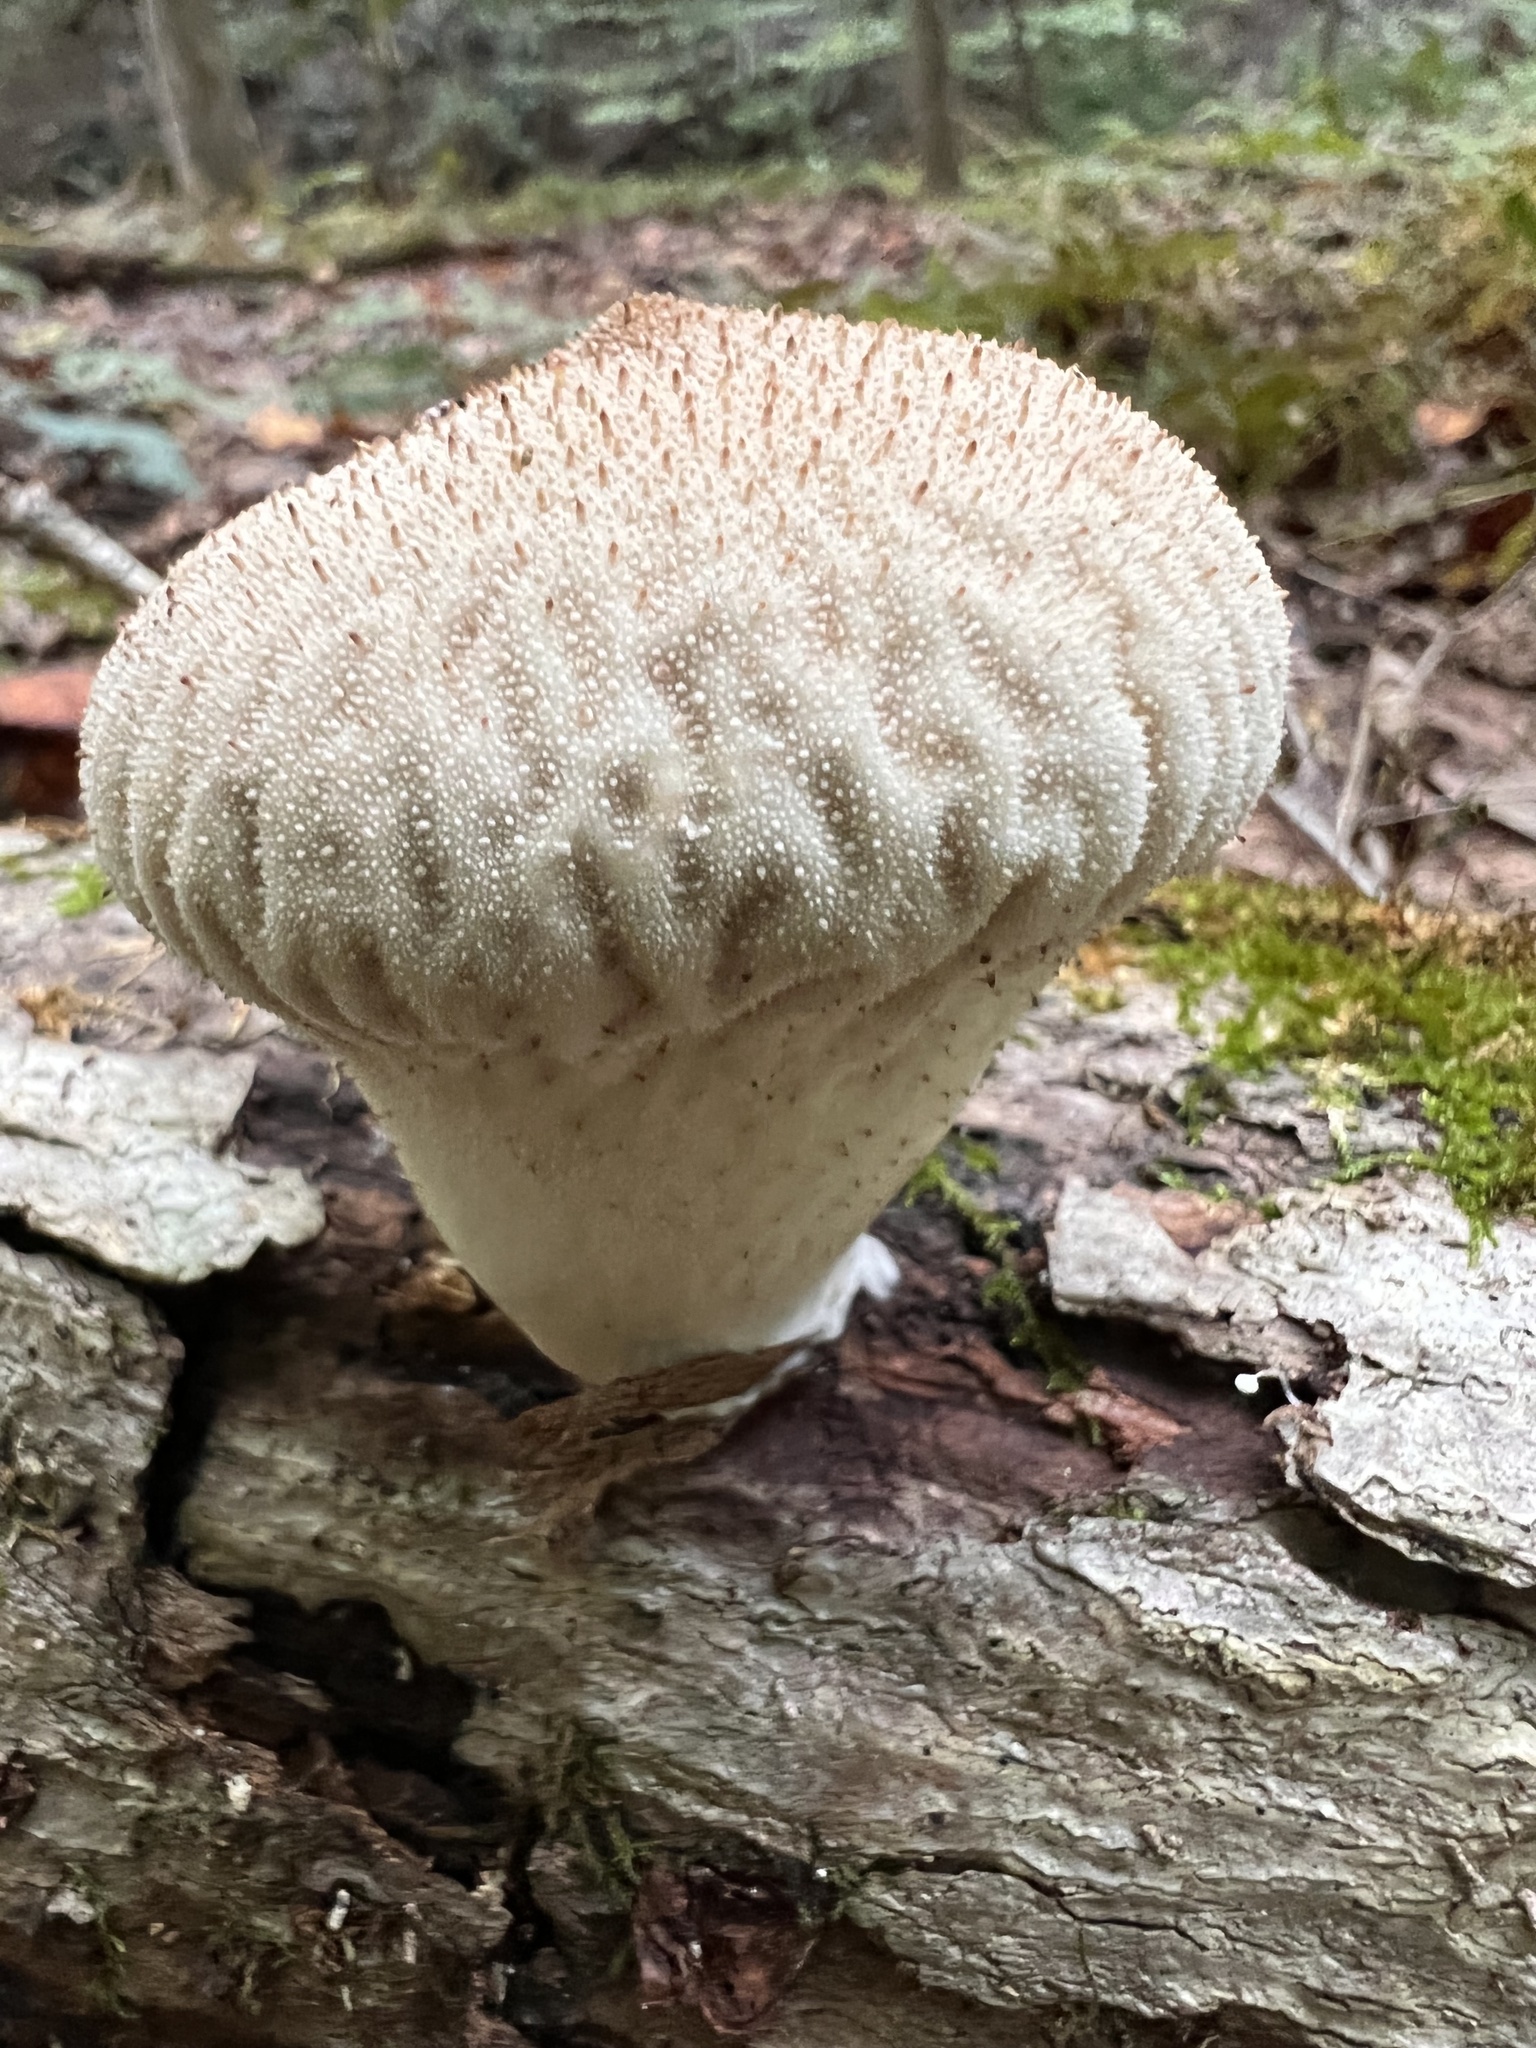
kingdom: Fungi
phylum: Basidiomycota
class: Agaricomycetes
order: Agaricales
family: Lycoperdaceae
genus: Lycoperdon
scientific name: Lycoperdon perlatum
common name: Common puffball
